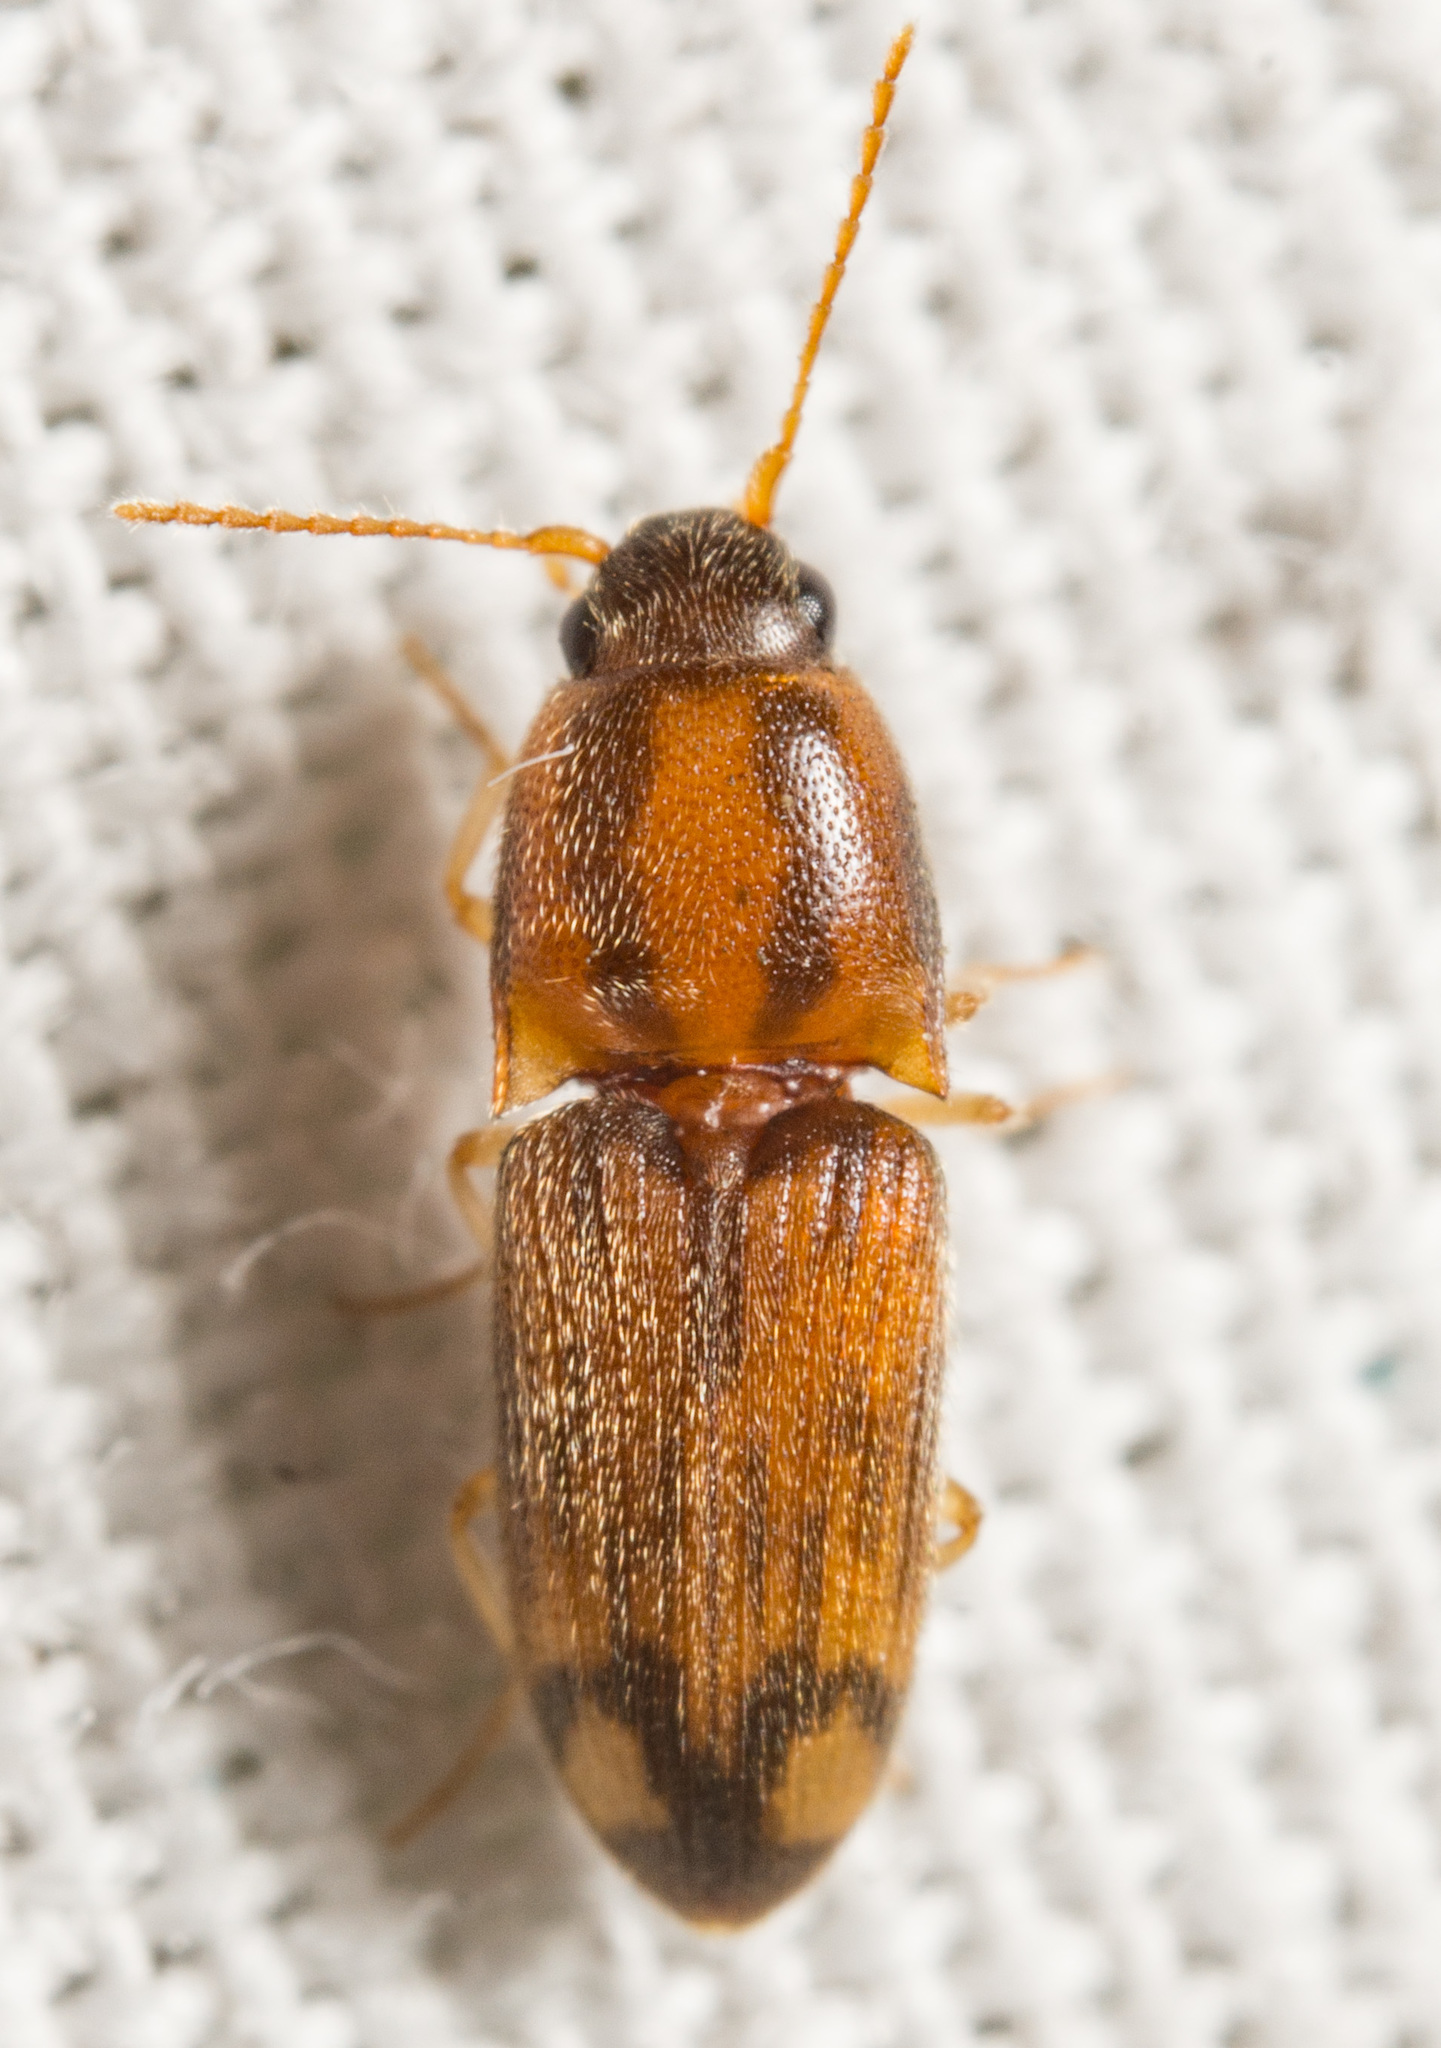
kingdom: Animalia
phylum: Arthropoda
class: Insecta
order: Coleoptera
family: Elateridae
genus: Monocrepidius
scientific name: Monocrepidius bellus
